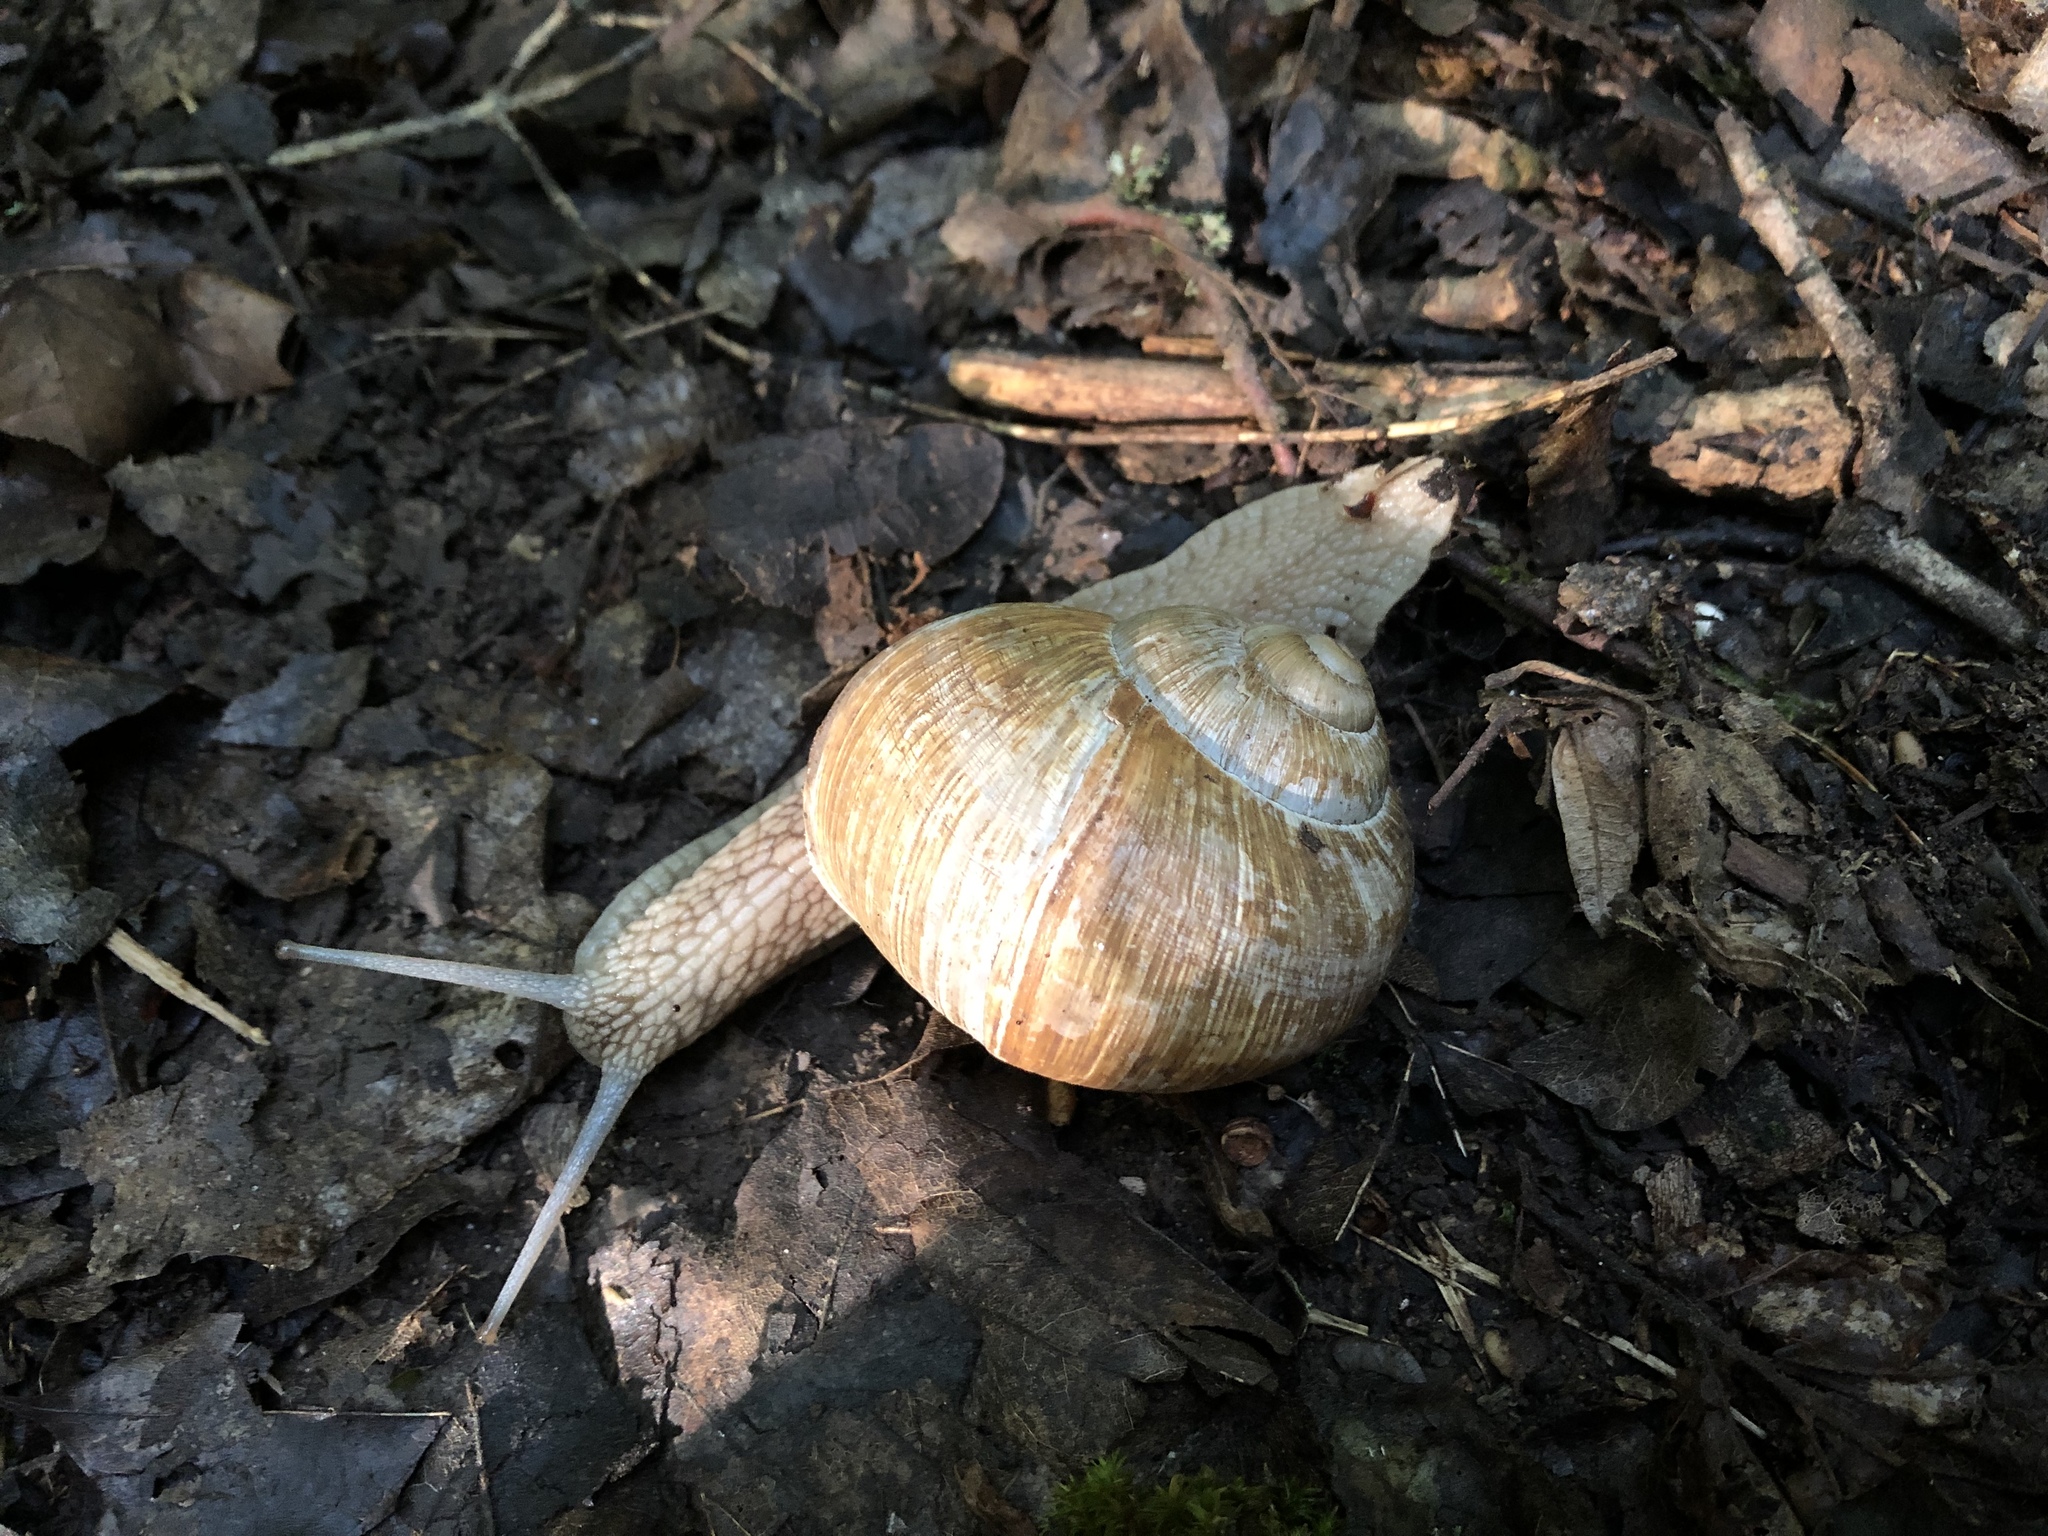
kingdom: Animalia
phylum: Mollusca
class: Gastropoda
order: Stylommatophora
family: Helicidae
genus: Helix
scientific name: Helix pomatia
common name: Roman snail
